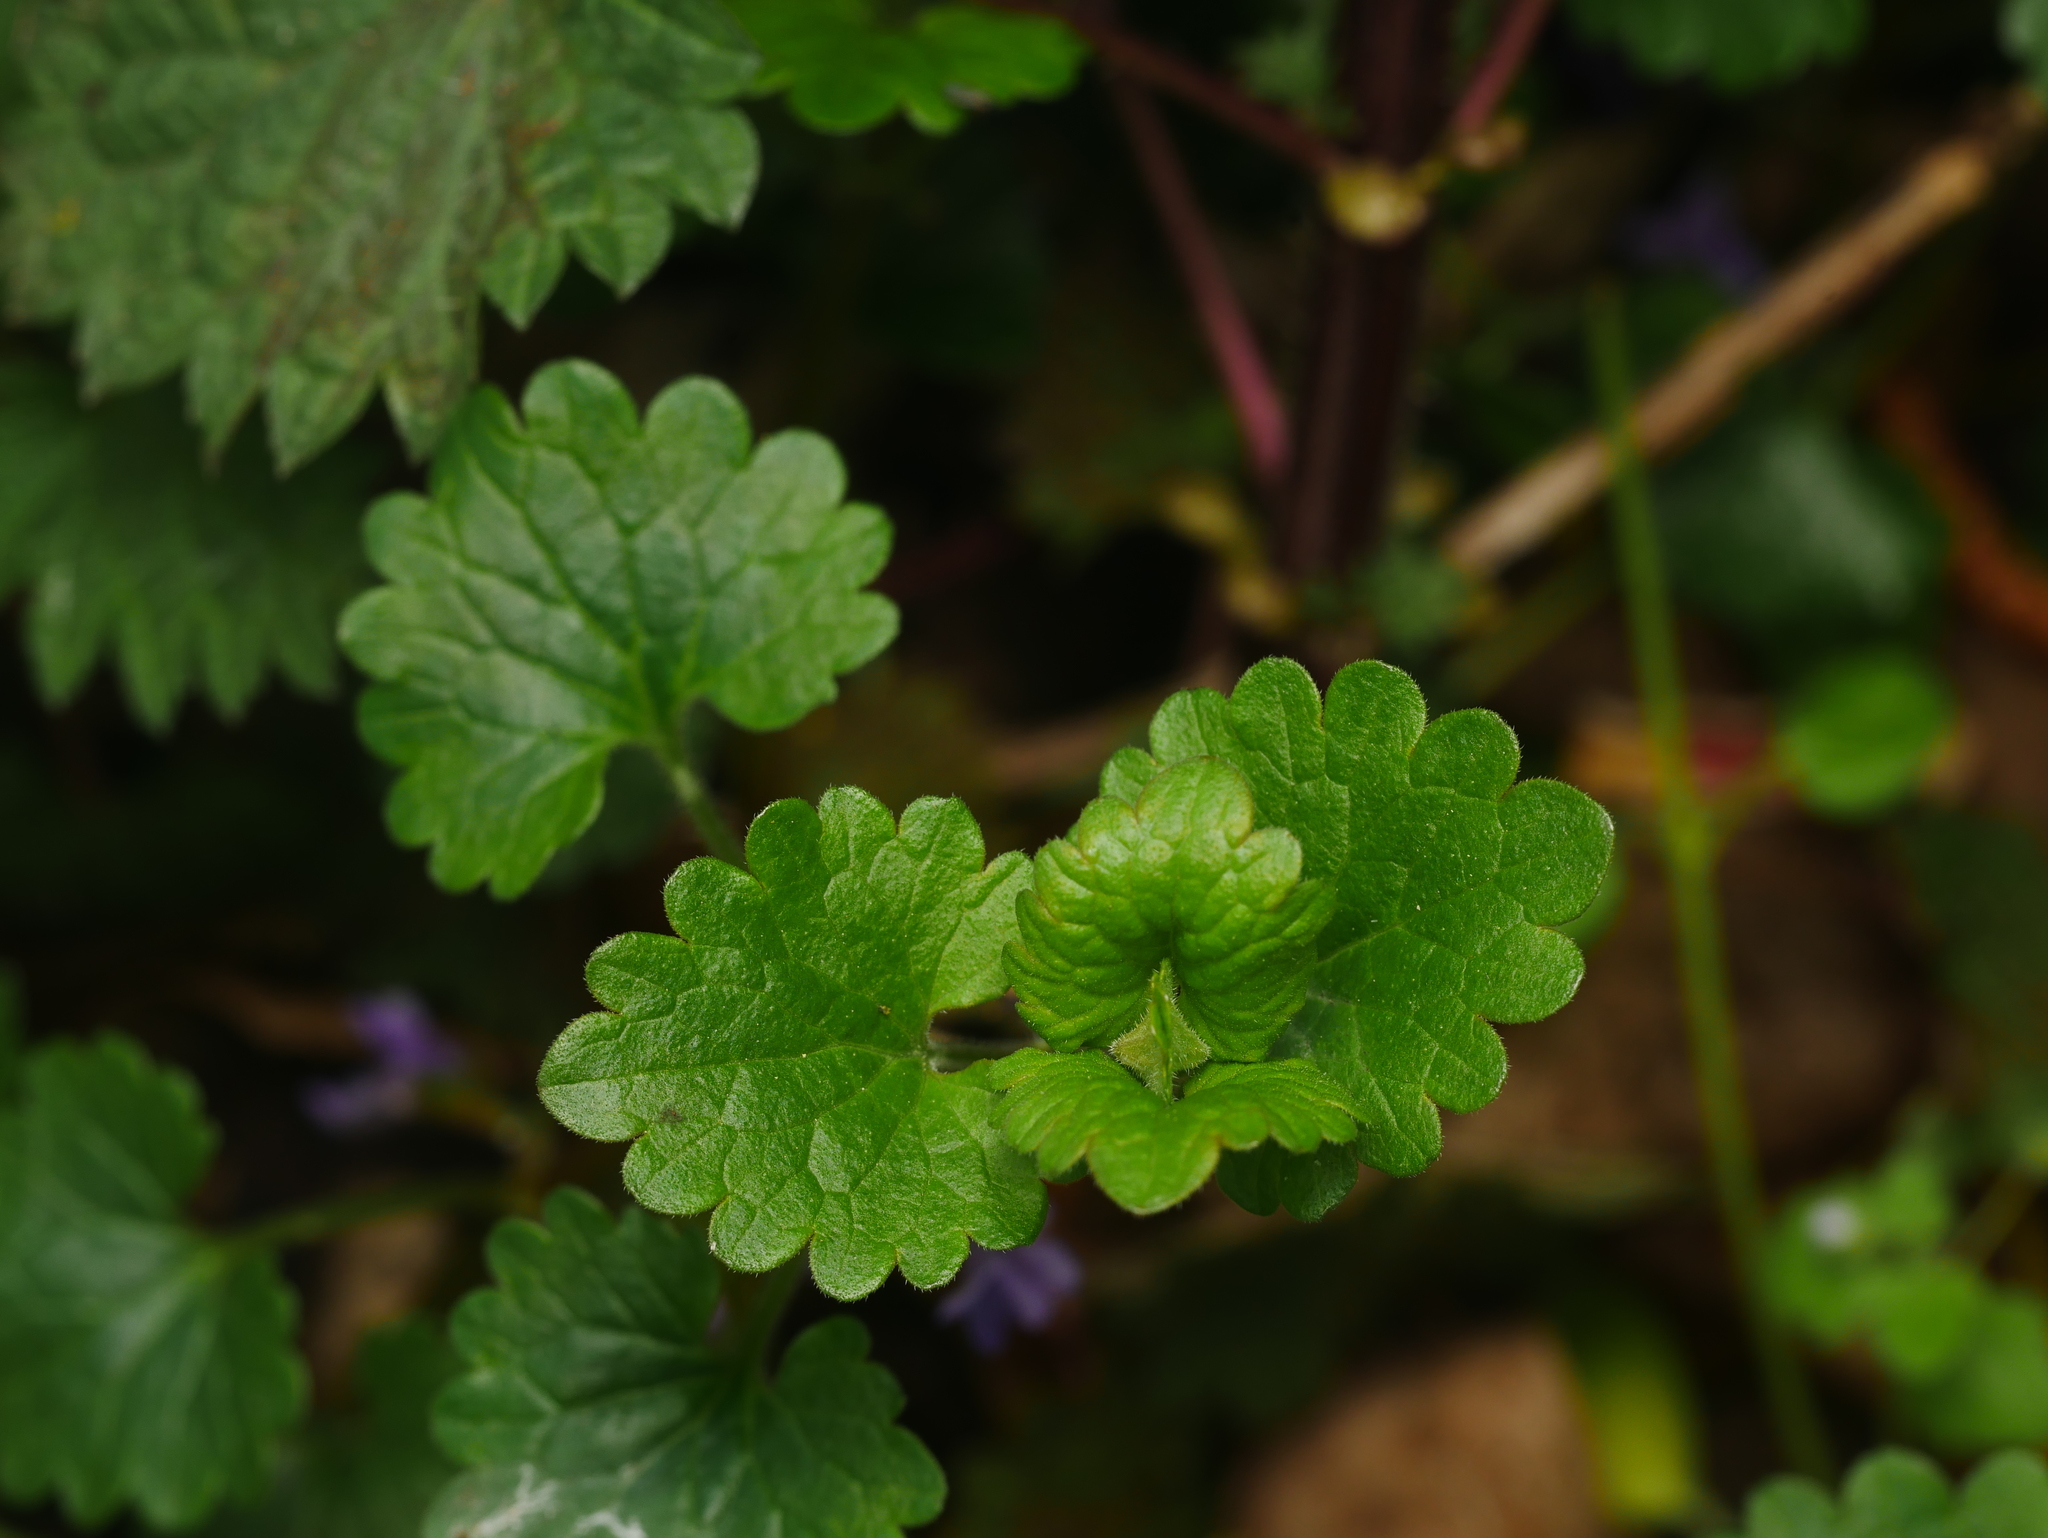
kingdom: Plantae
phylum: Tracheophyta
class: Magnoliopsida
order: Lamiales
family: Lamiaceae
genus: Glechoma
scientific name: Glechoma hederacea
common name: Ground ivy
